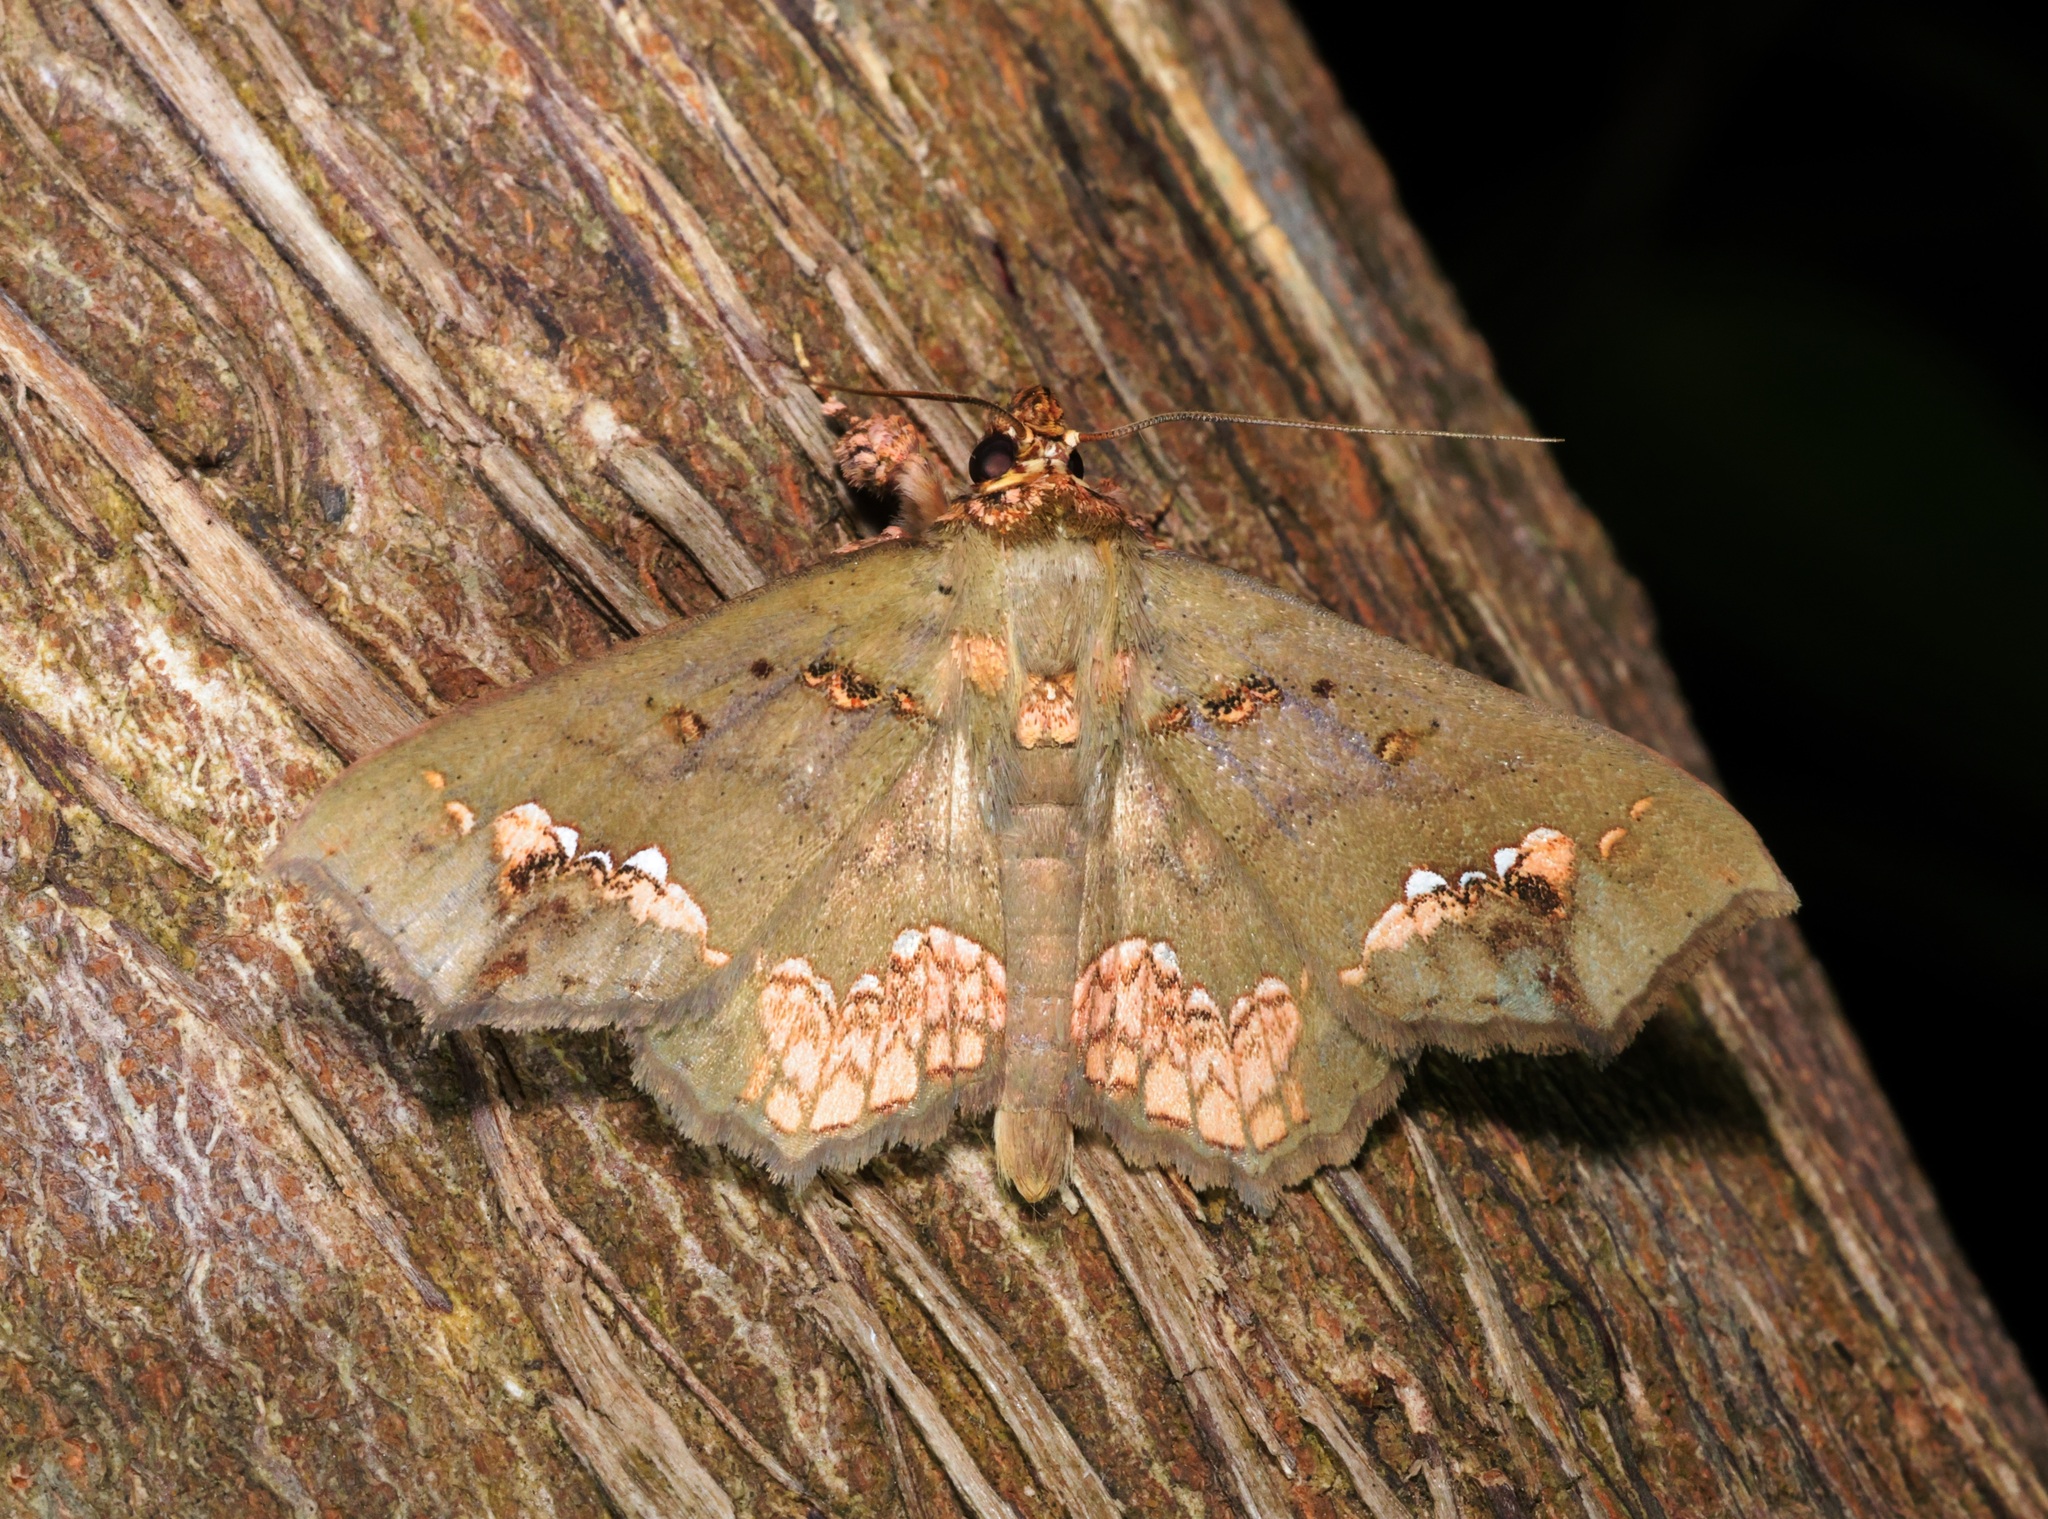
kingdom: Animalia
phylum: Arthropoda
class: Insecta
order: Lepidoptera
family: Erebidae
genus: Lopharthrum
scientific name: Lopharthrum comprimens
